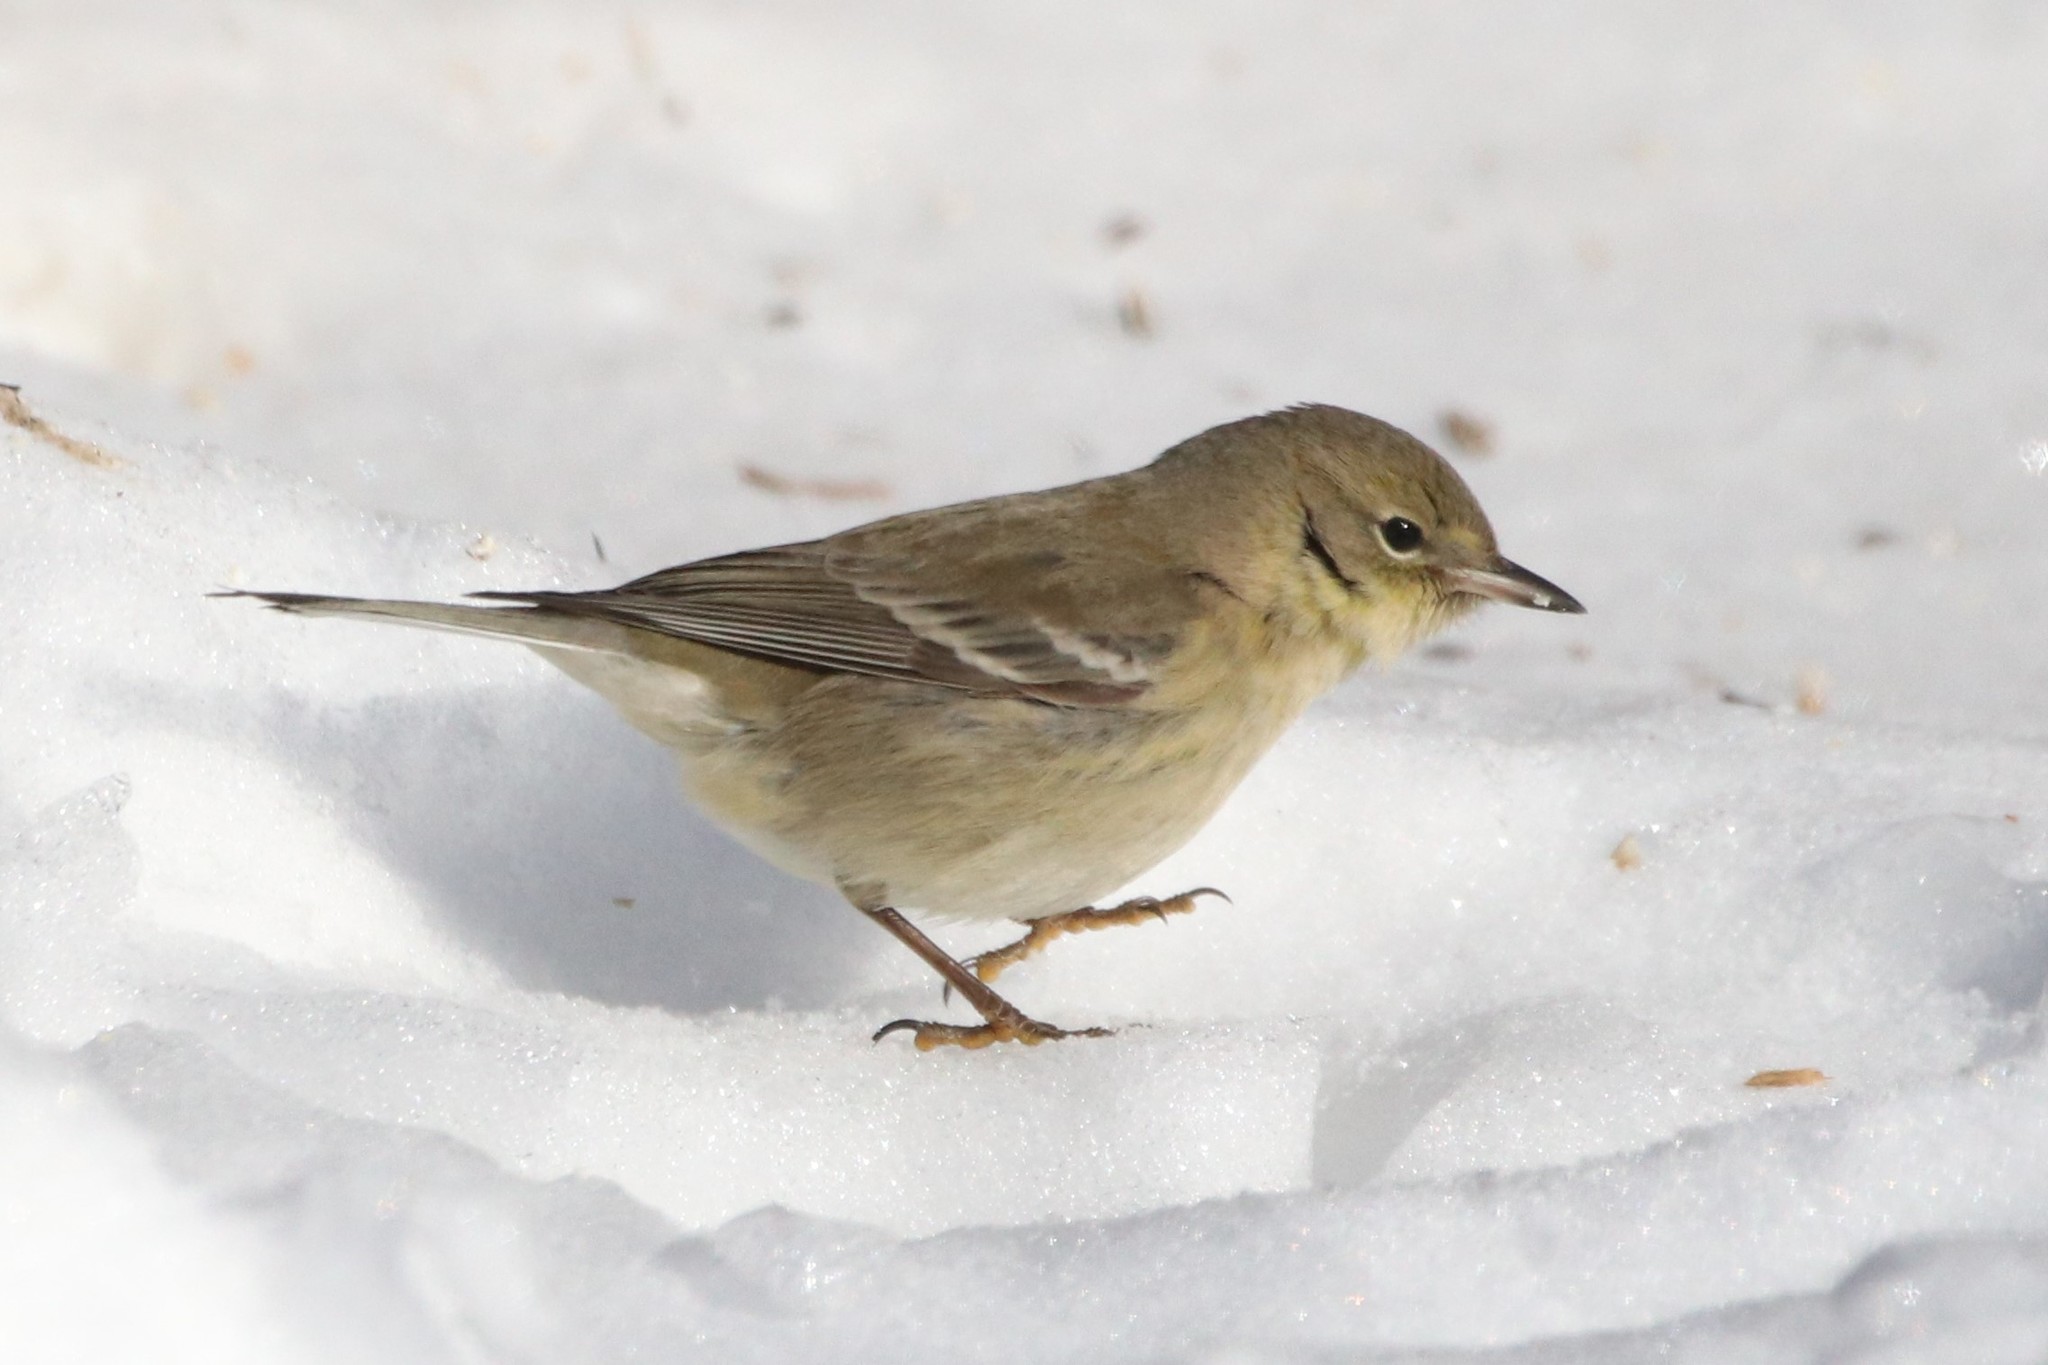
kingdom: Animalia
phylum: Chordata
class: Aves
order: Passeriformes
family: Parulidae
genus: Setophaga
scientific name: Setophaga pinus
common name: Pine warbler
